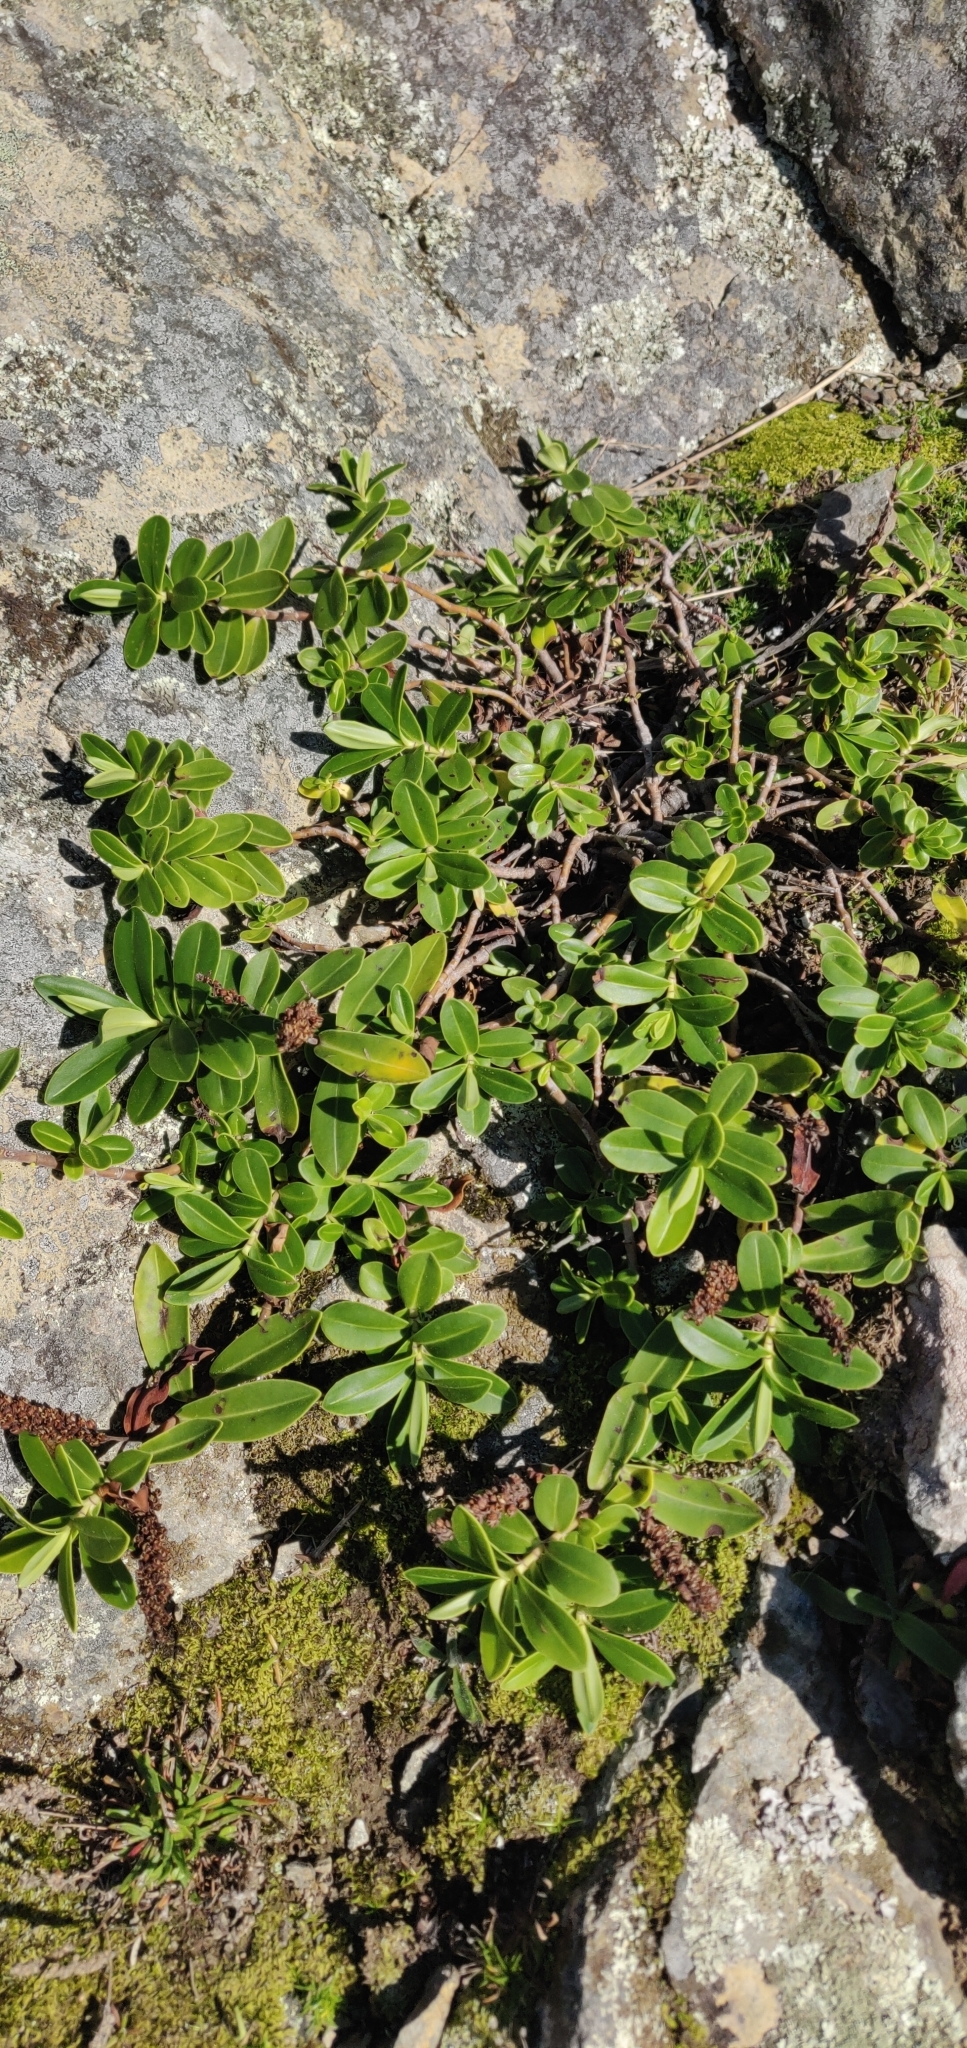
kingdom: Plantae
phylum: Tracheophyta
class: Magnoliopsida
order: Lamiales
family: Plantaginaceae
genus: Veronica
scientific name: Veronica stricta
